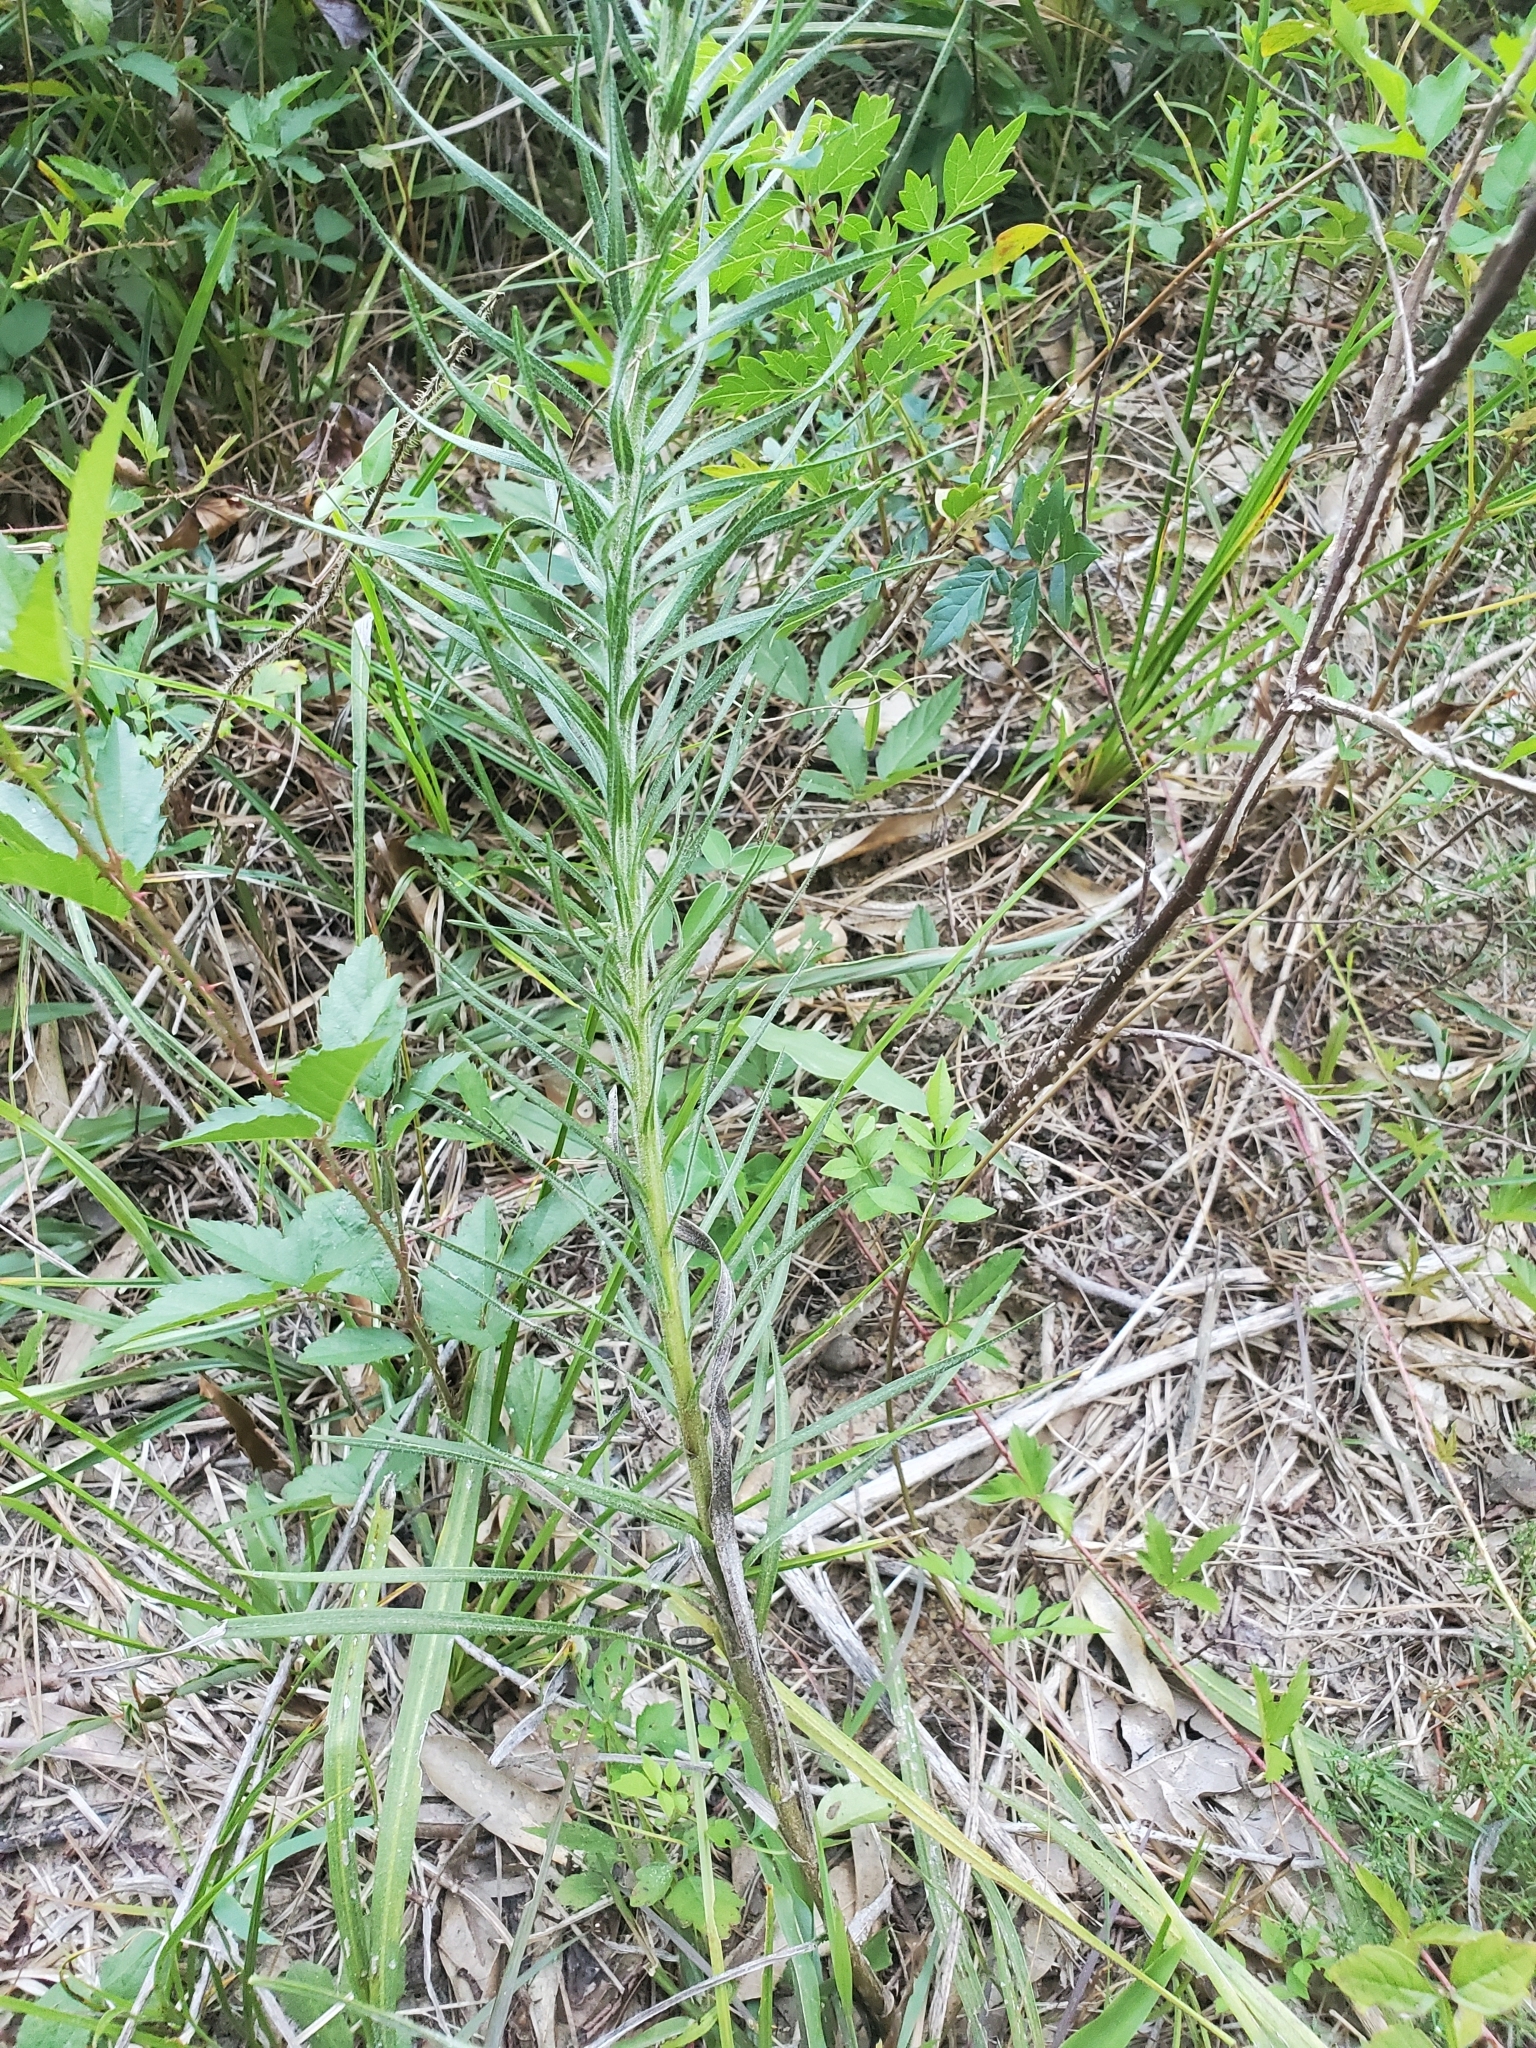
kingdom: Plantae
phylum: Tracheophyta
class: Magnoliopsida
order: Asterales
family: Asteraceae
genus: Liatris
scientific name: Liatris pycnostachya
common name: Cattail gayfeather
